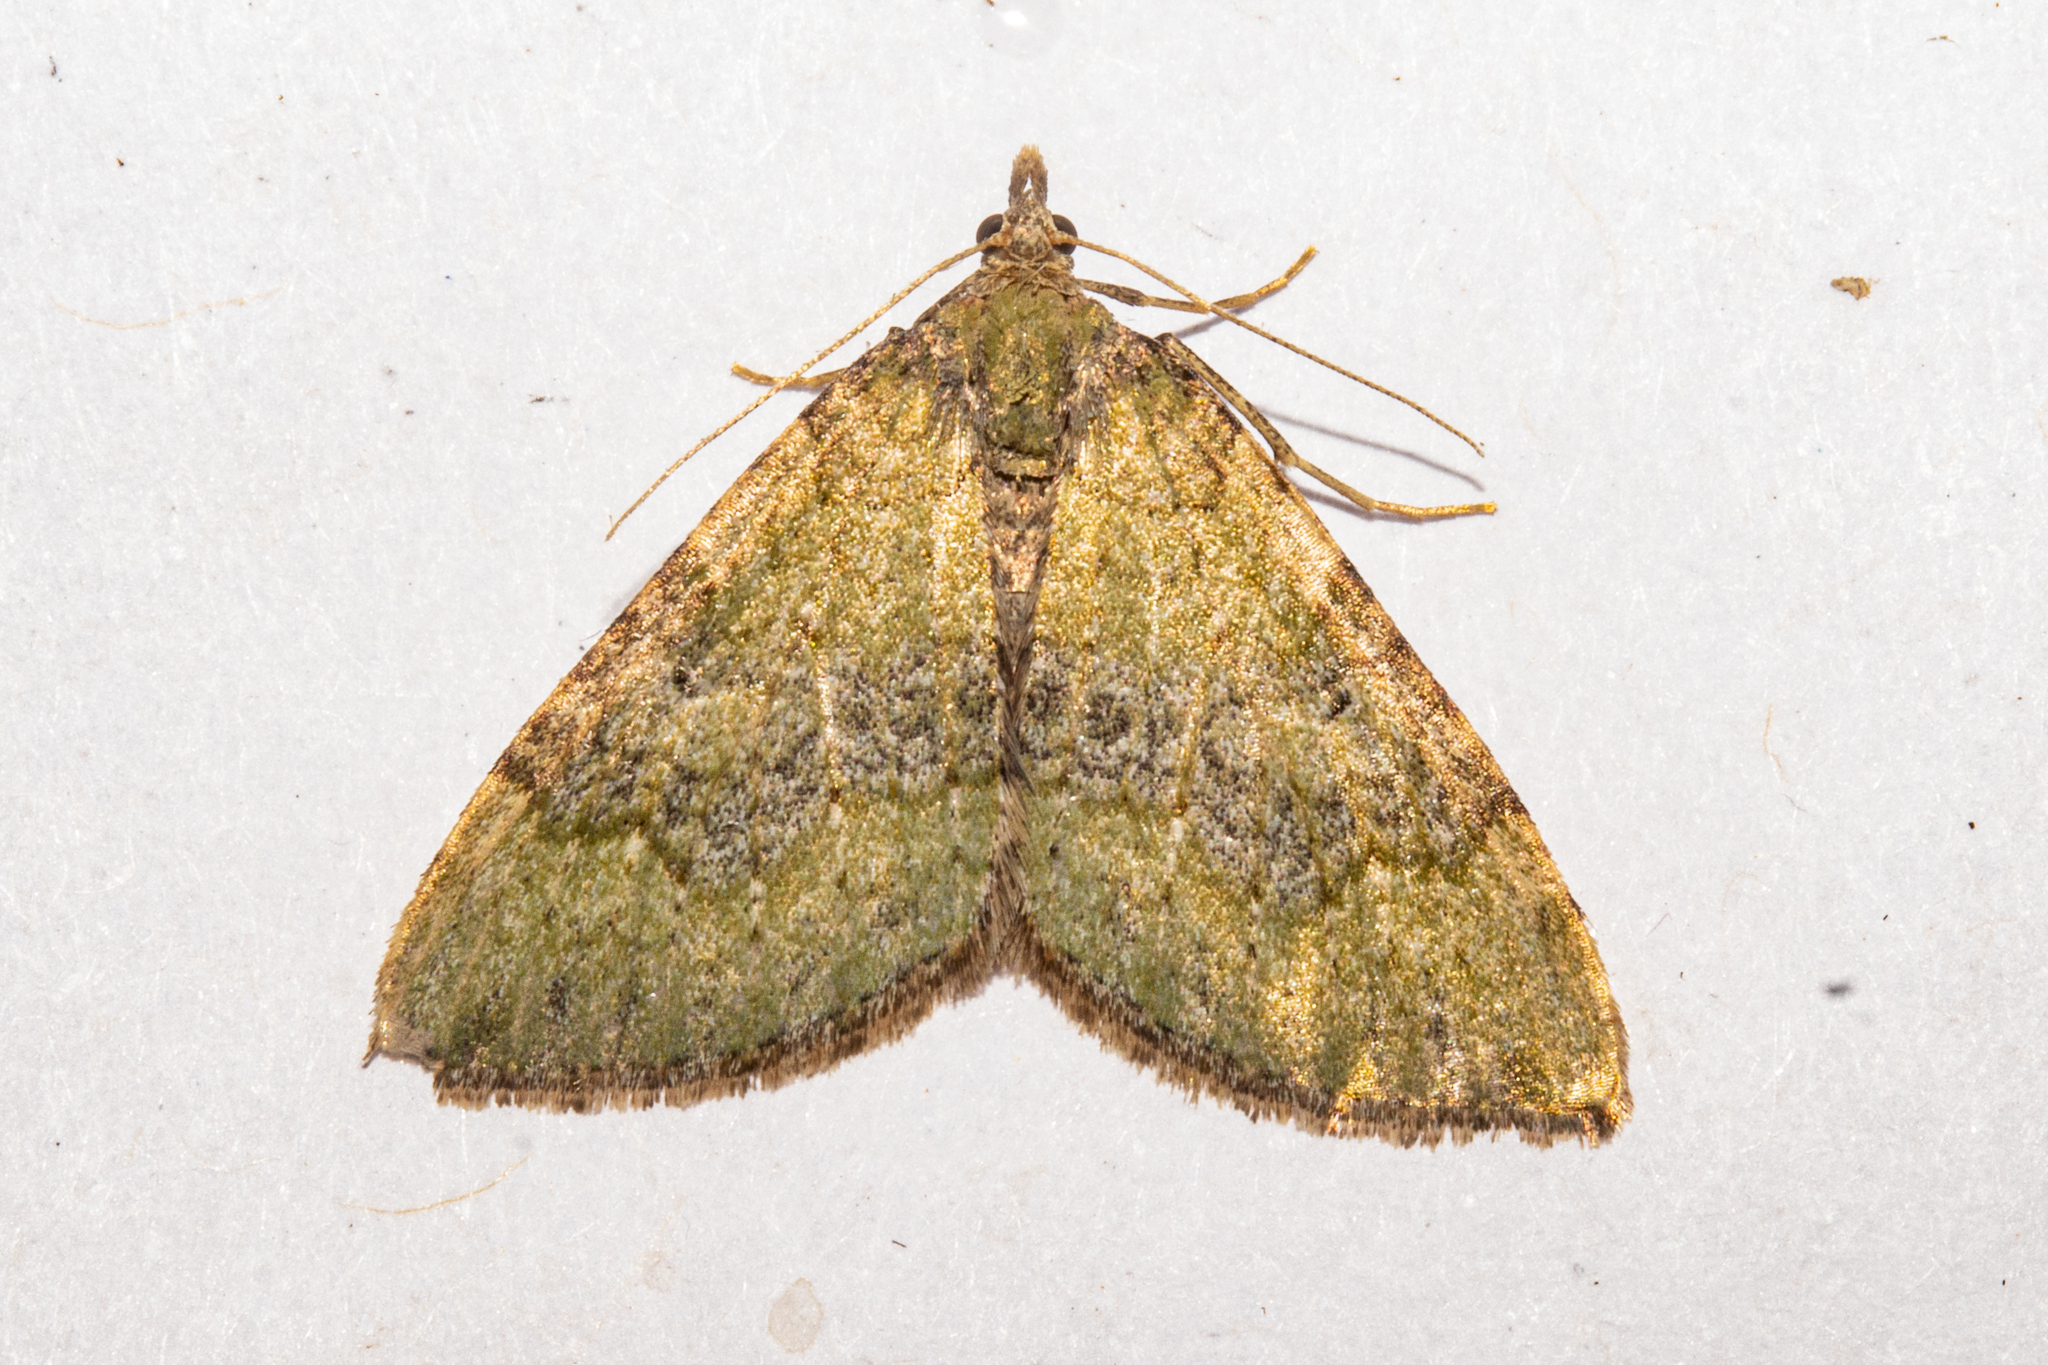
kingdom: Animalia
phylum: Arthropoda
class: Insecta
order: Lepidoptera
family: Geometridae
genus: Epyaxa
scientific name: Epyaxa rosearia
